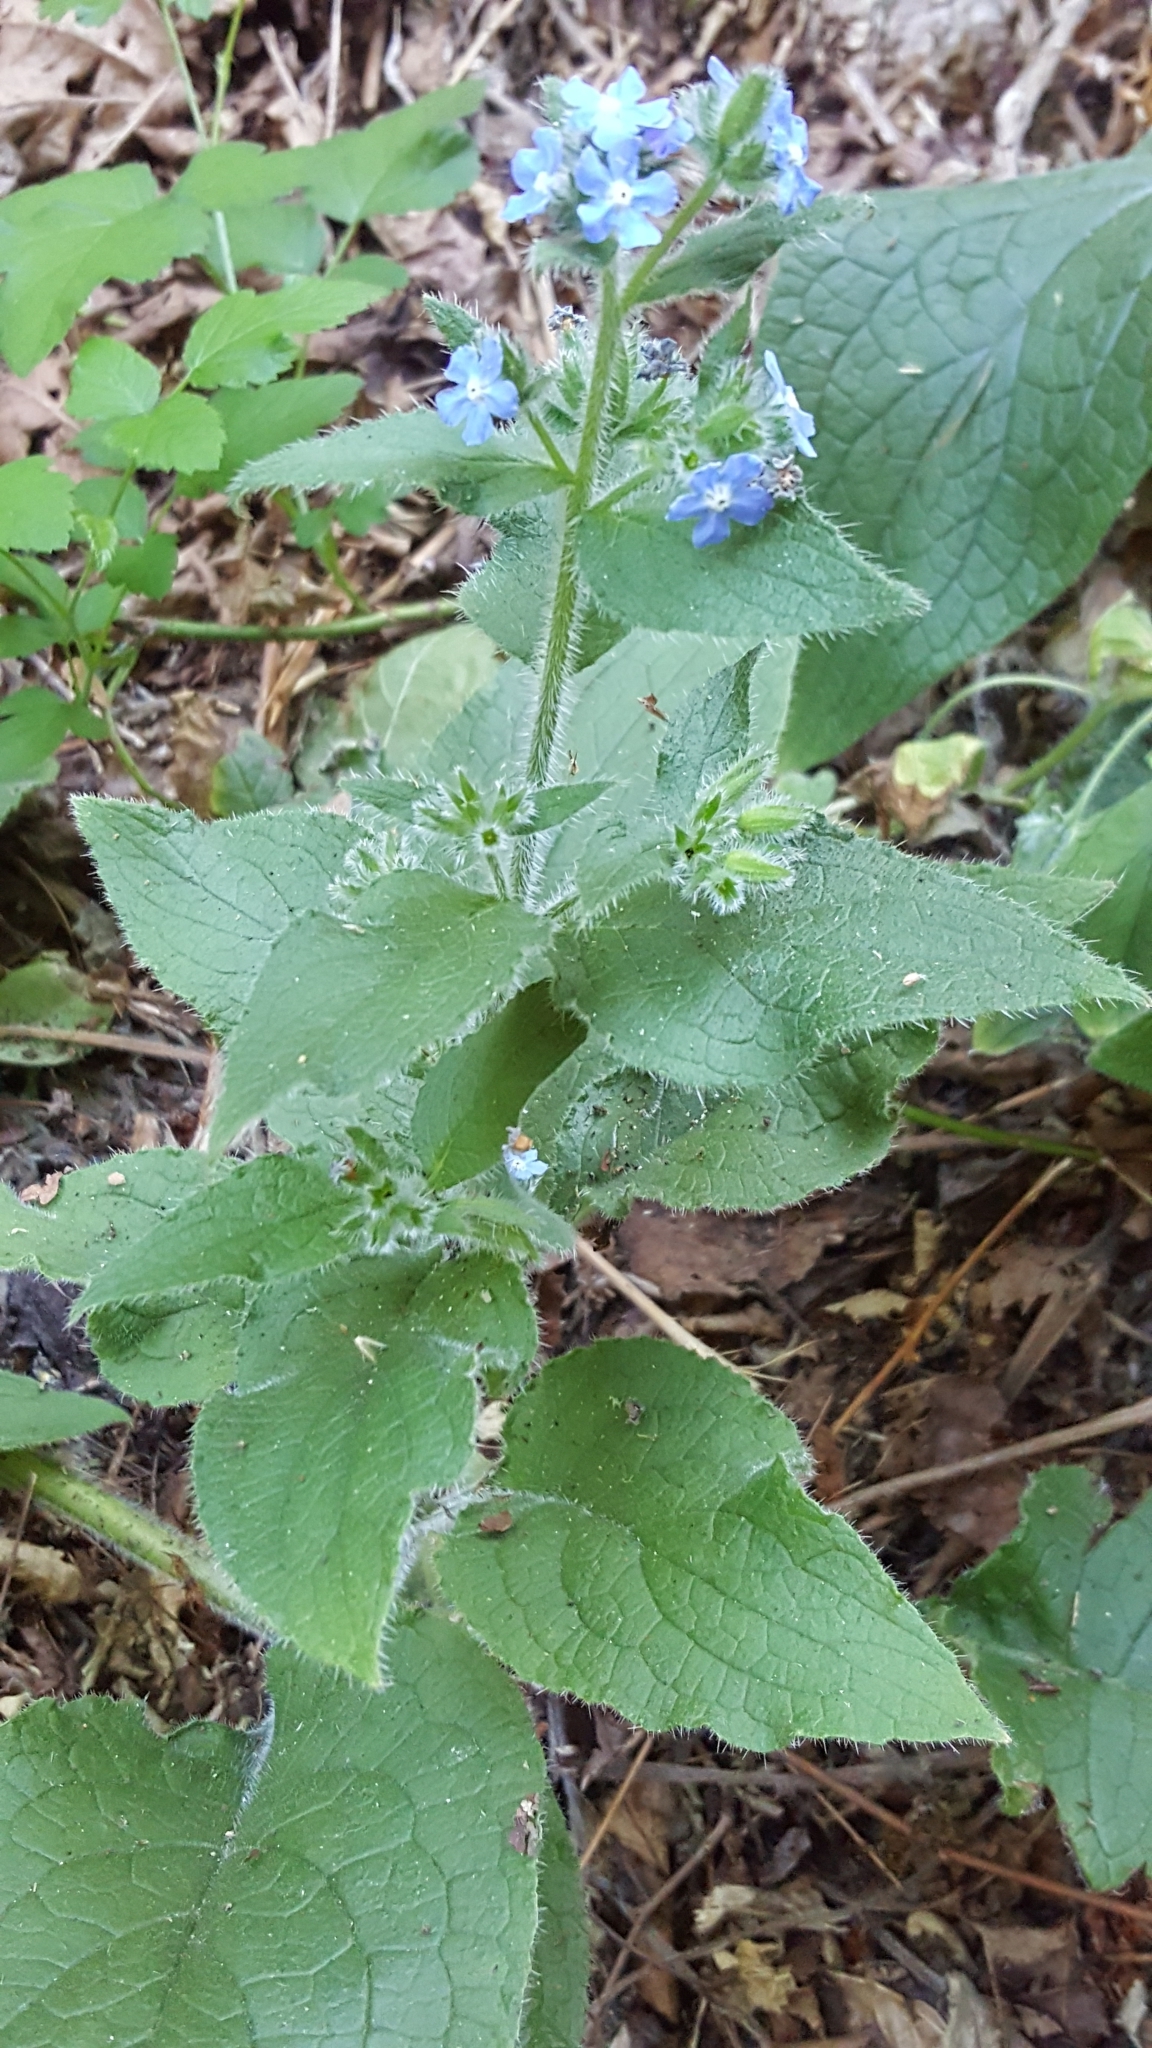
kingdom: Plantae
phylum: Tracheophyta
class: Magnoliopsida
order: Boraginales
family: Boraginaceae
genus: Pentaglottis
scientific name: Pentaglottis sempervirens
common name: Green alkanet
